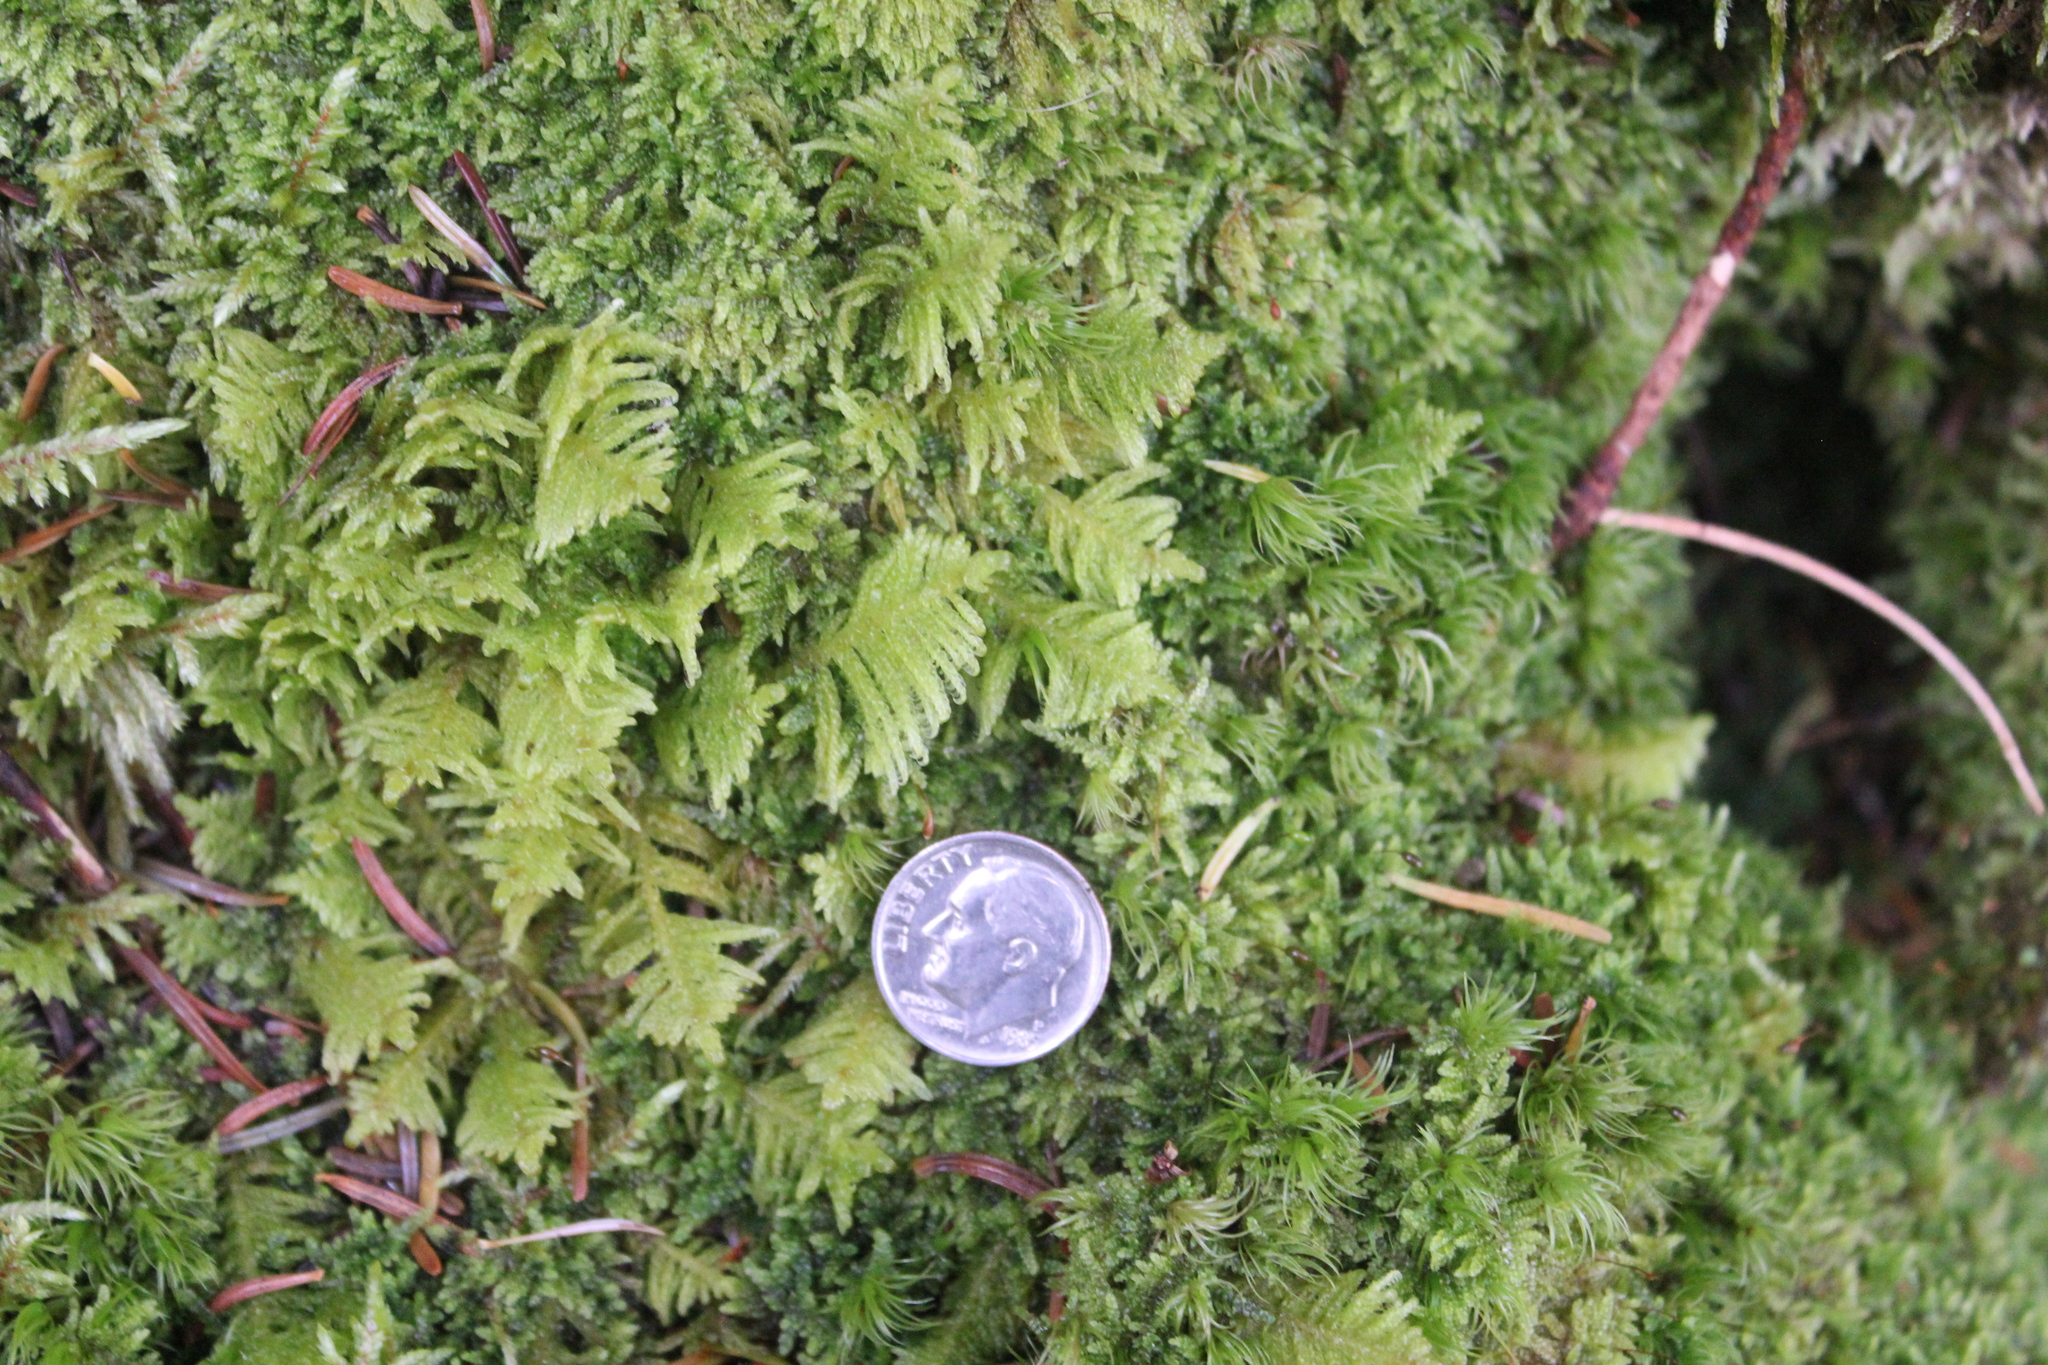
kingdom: Plantae
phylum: Bryophyta
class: Bryopsida
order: Hypnales
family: Pylaisiaceae
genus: Ptilium
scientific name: Ptilium crista-castrensis
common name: Knight's plume moss
